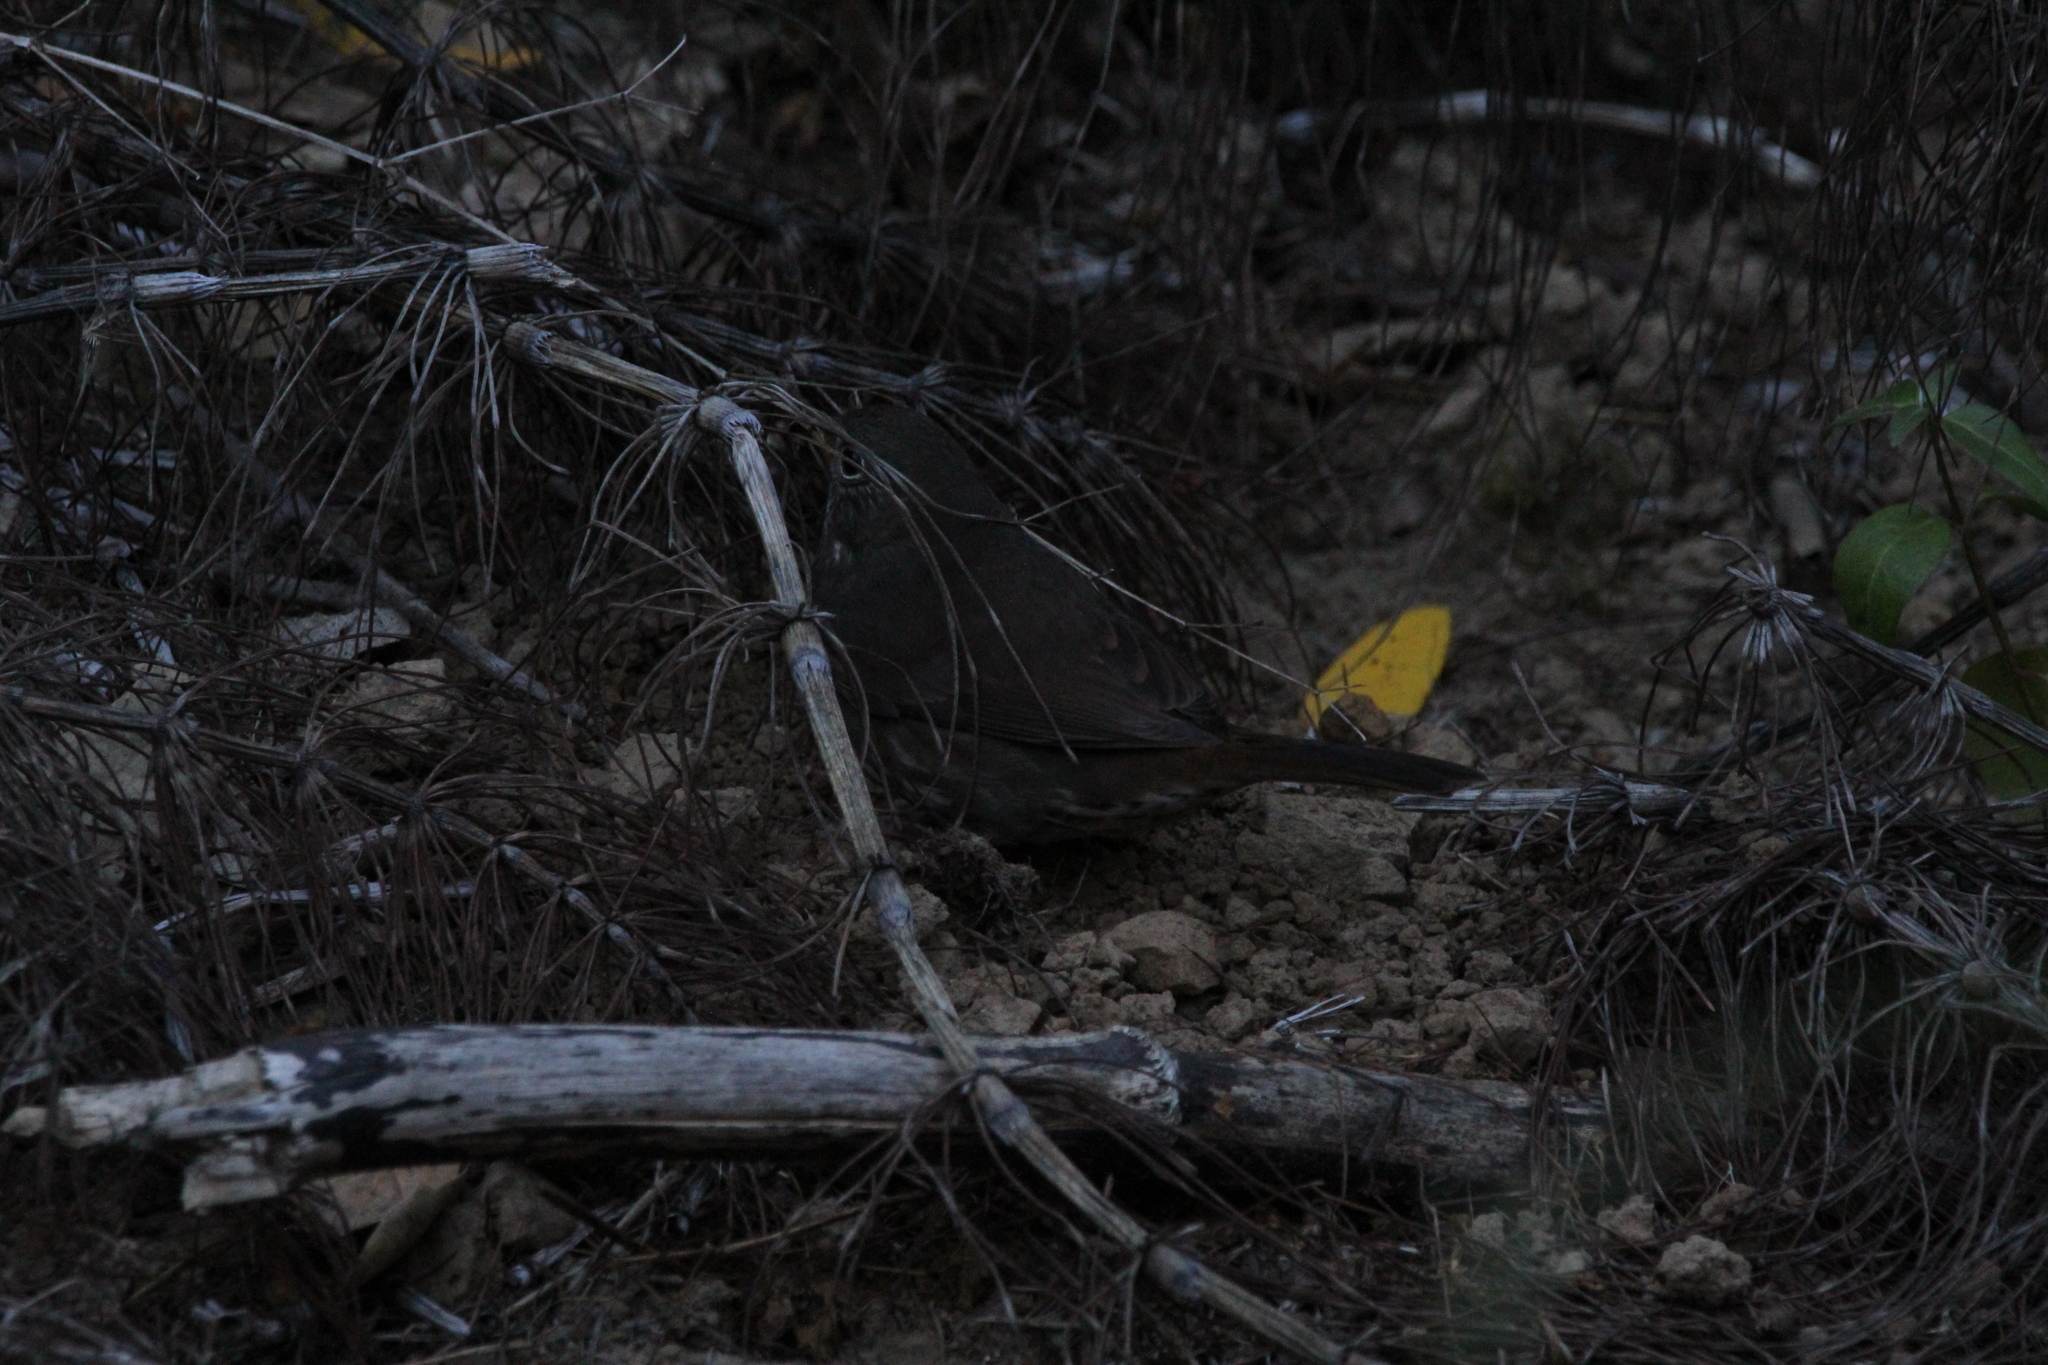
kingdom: Animalia
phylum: Chordata
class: Aves
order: Passeriformes
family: Passerellidae
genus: Passerella
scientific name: Passerella iliaca
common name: Fox sparrow
